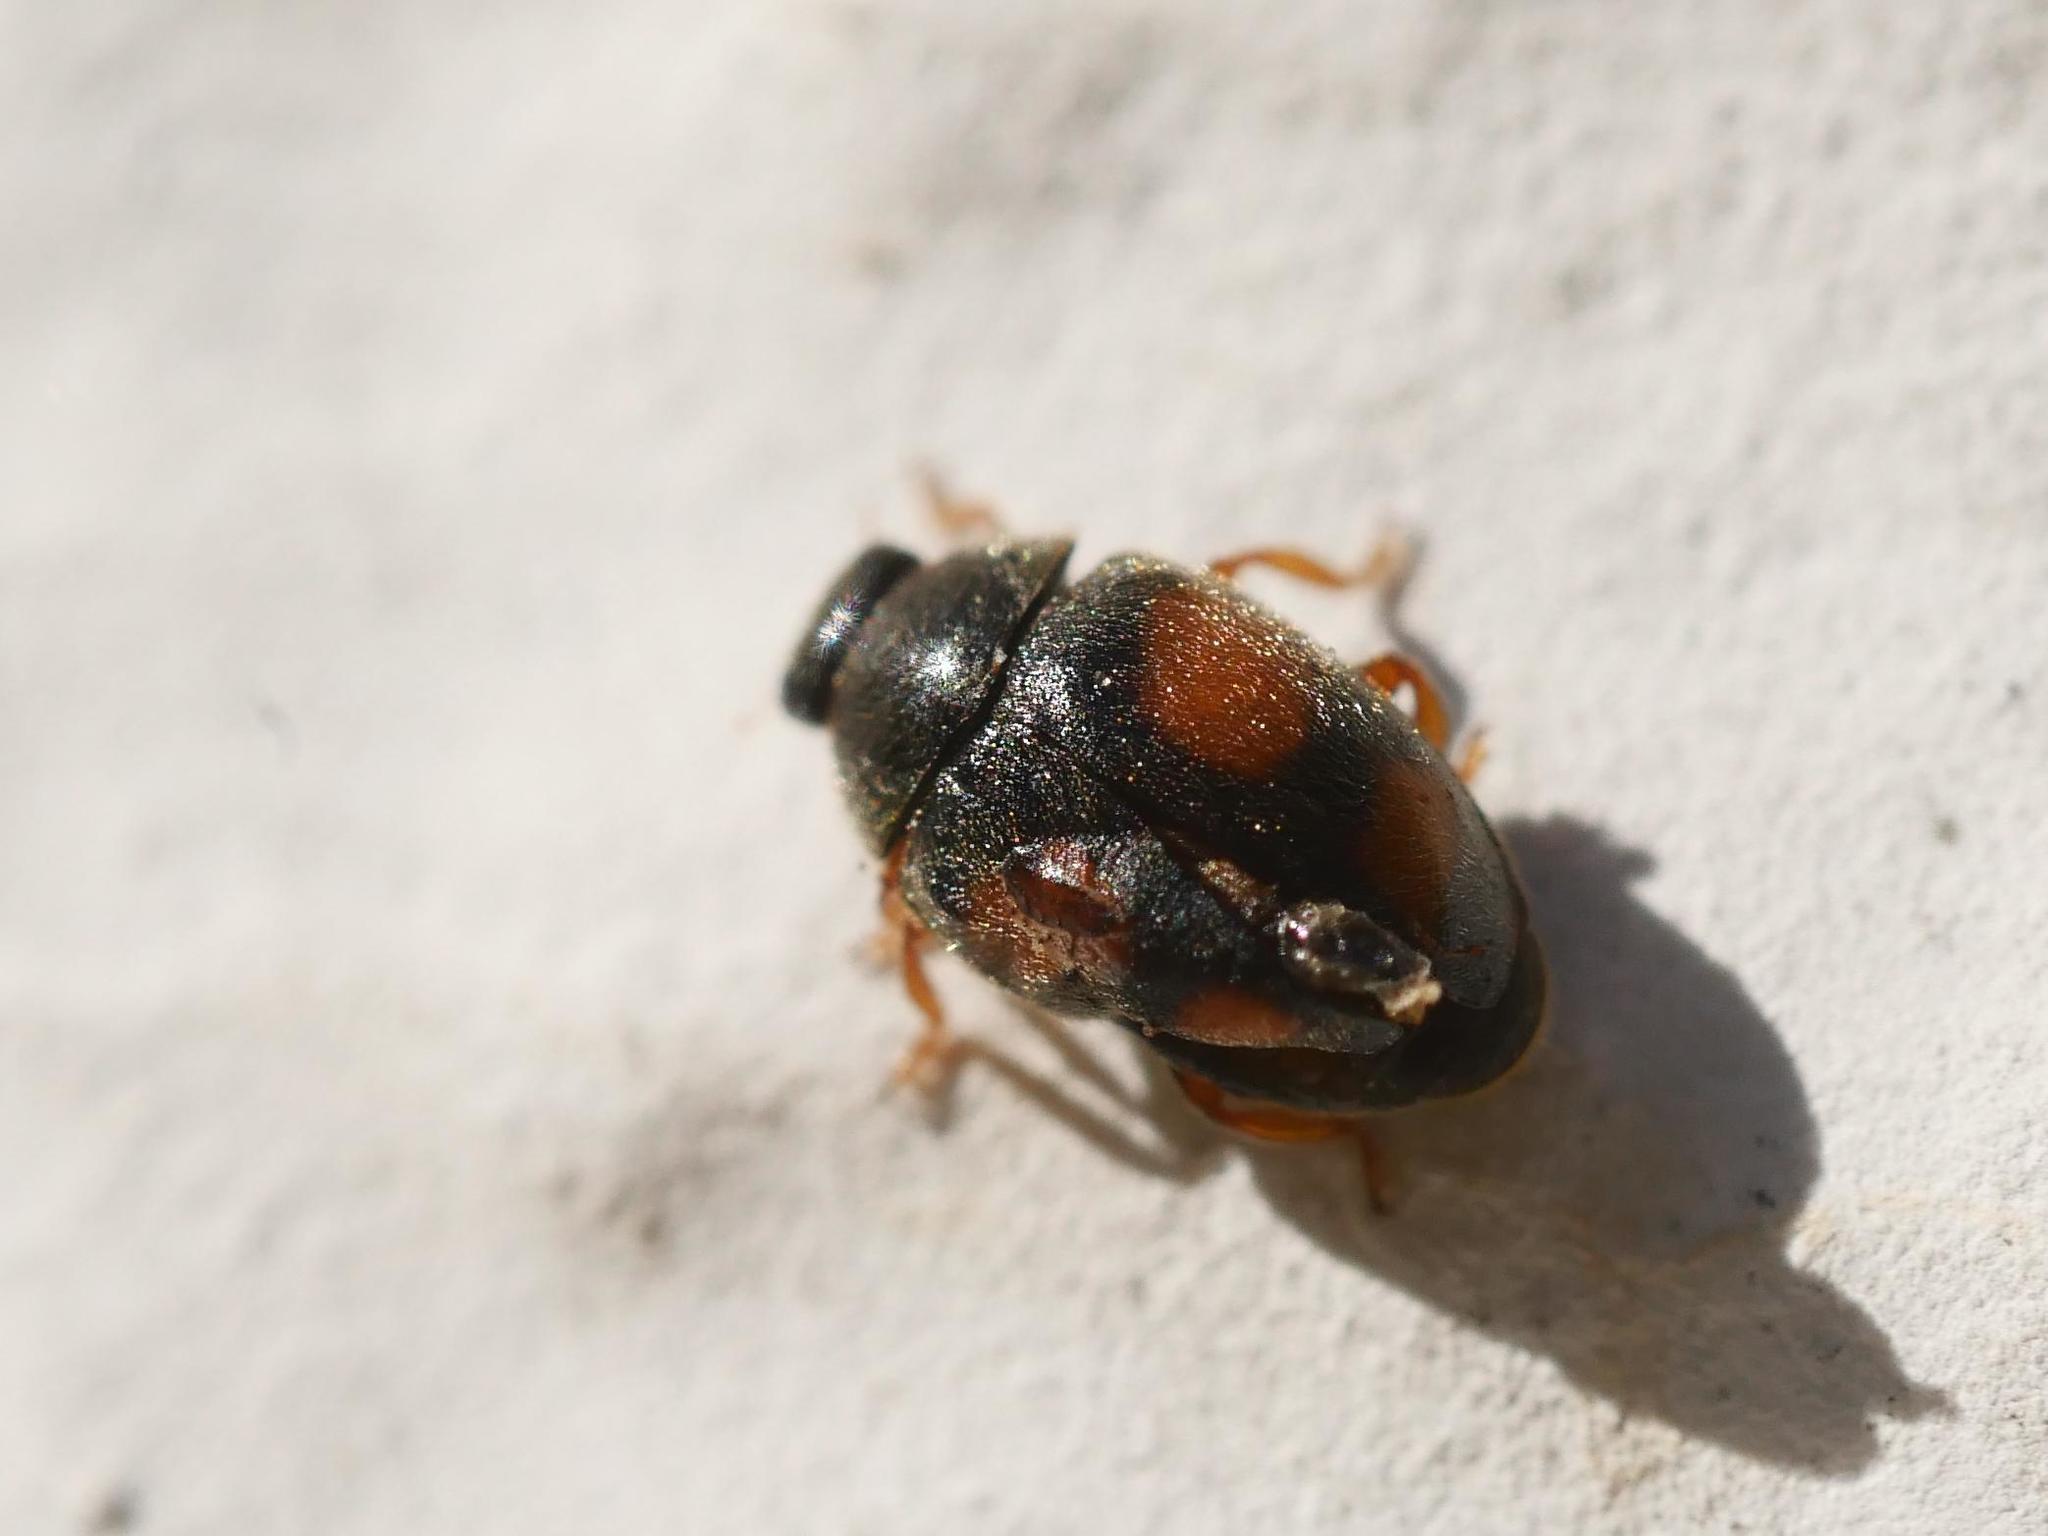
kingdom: Animalia
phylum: Arthropoda
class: Insecta
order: Coleoptera
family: Coccinellidae
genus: Scymnus
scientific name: Scymnus frontalis
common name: Ladybird beetle
